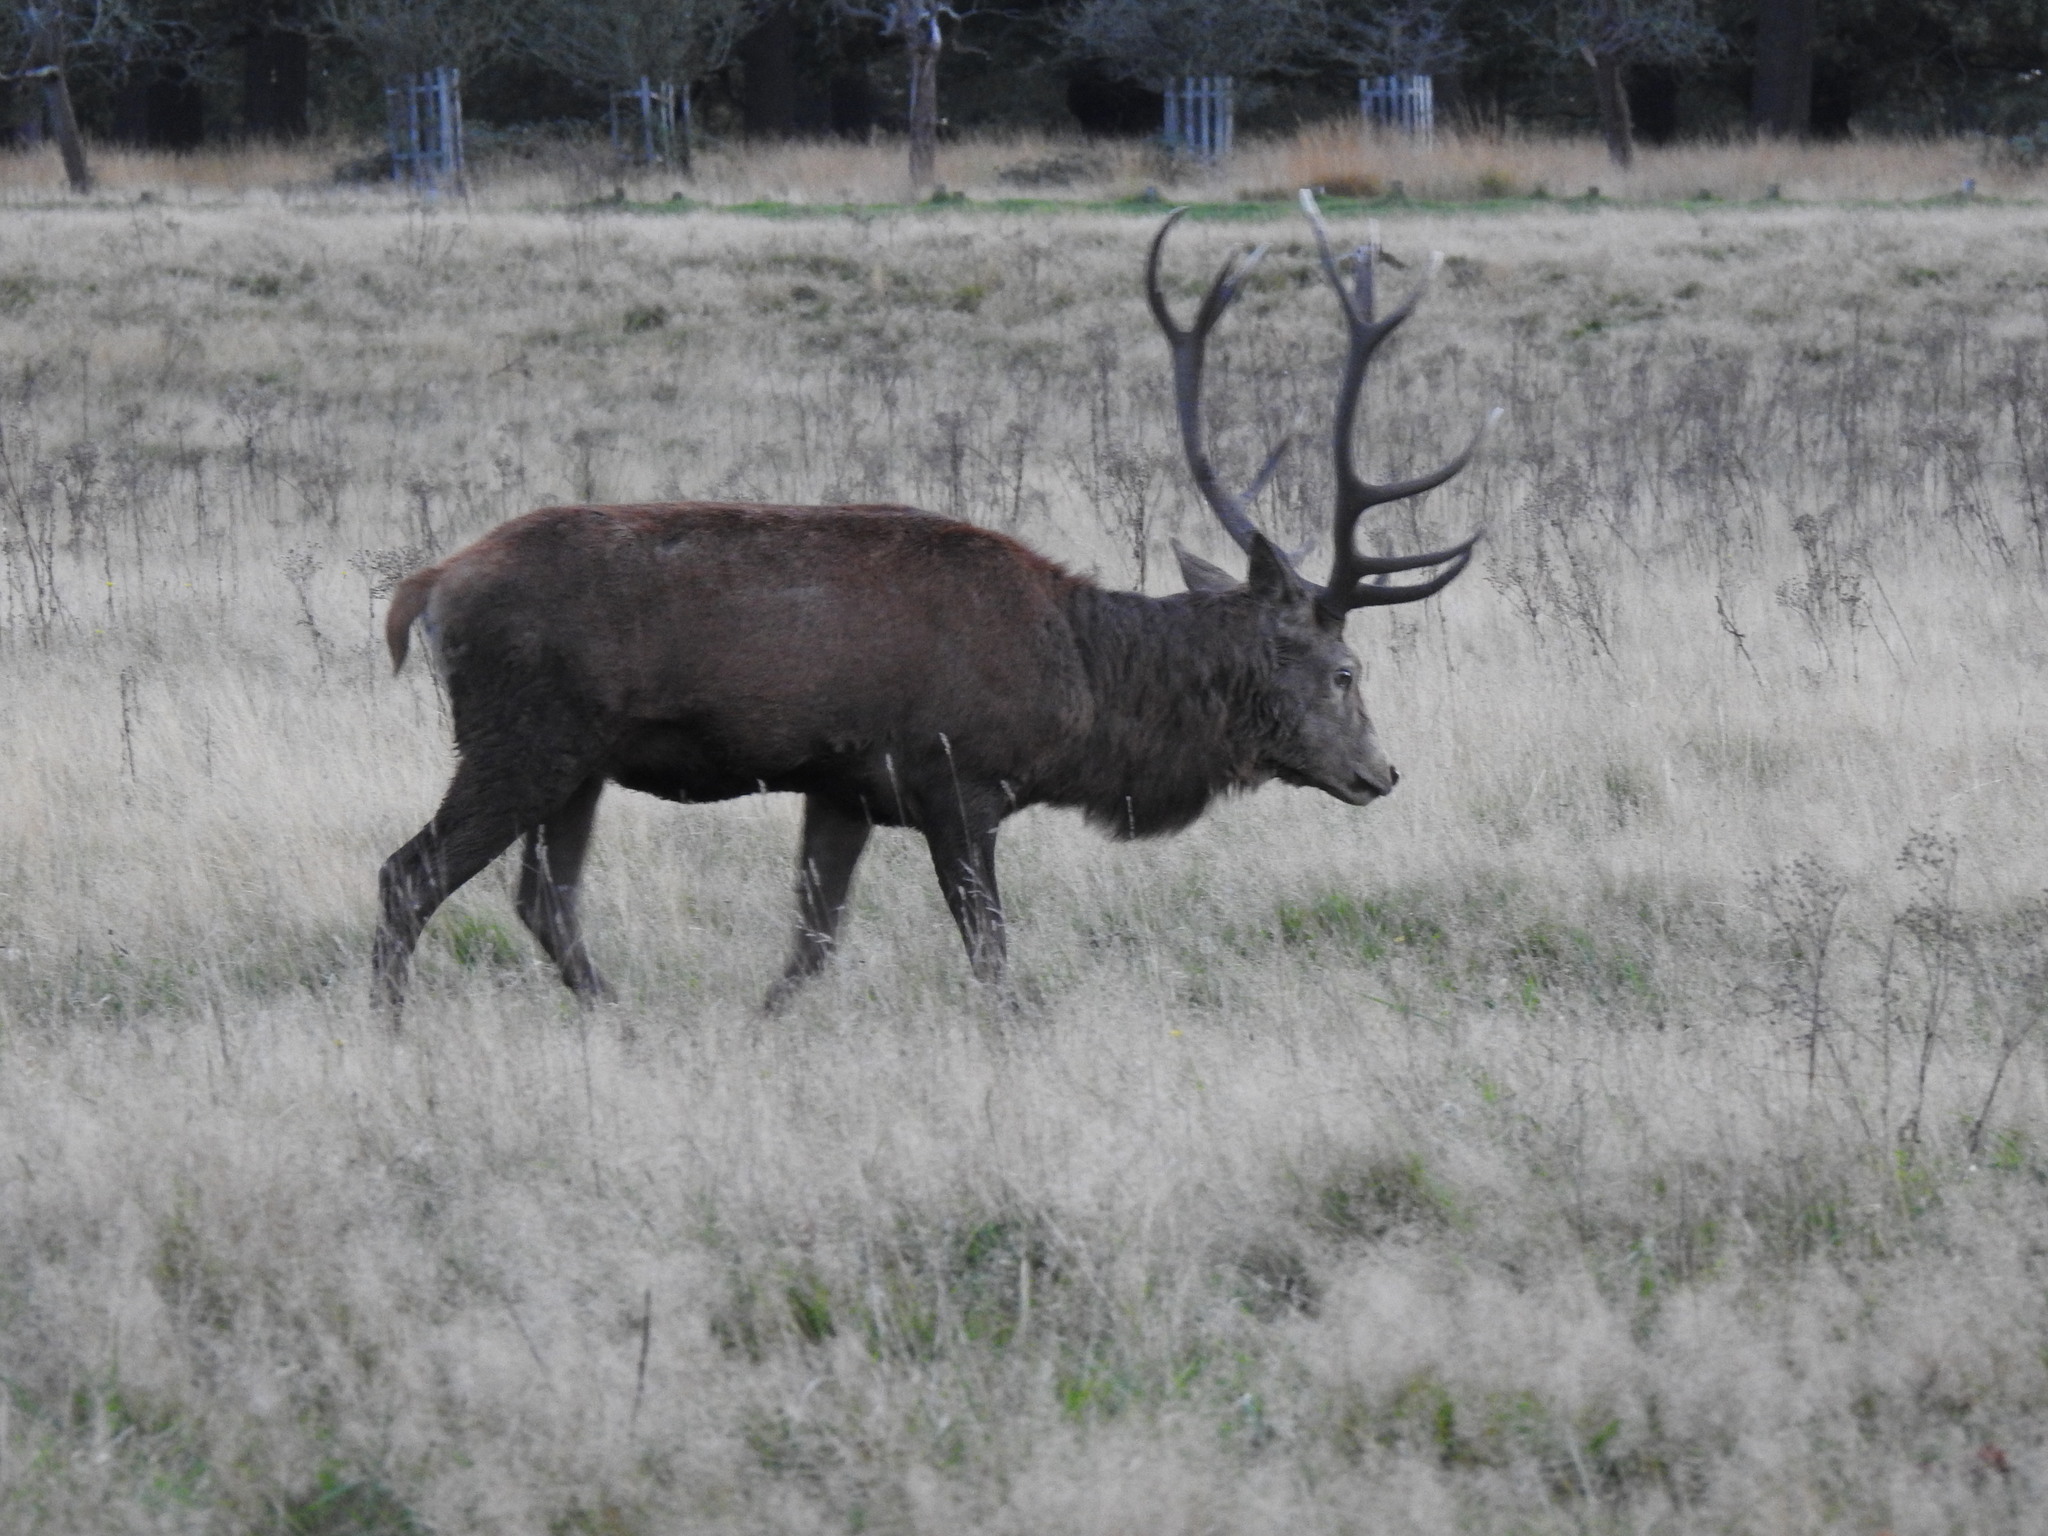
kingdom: Animalia
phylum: Chordata
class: Mammalia
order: Artiodactyla
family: Cervidae
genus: Cervus
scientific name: Cervus elaphus
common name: Red deer
